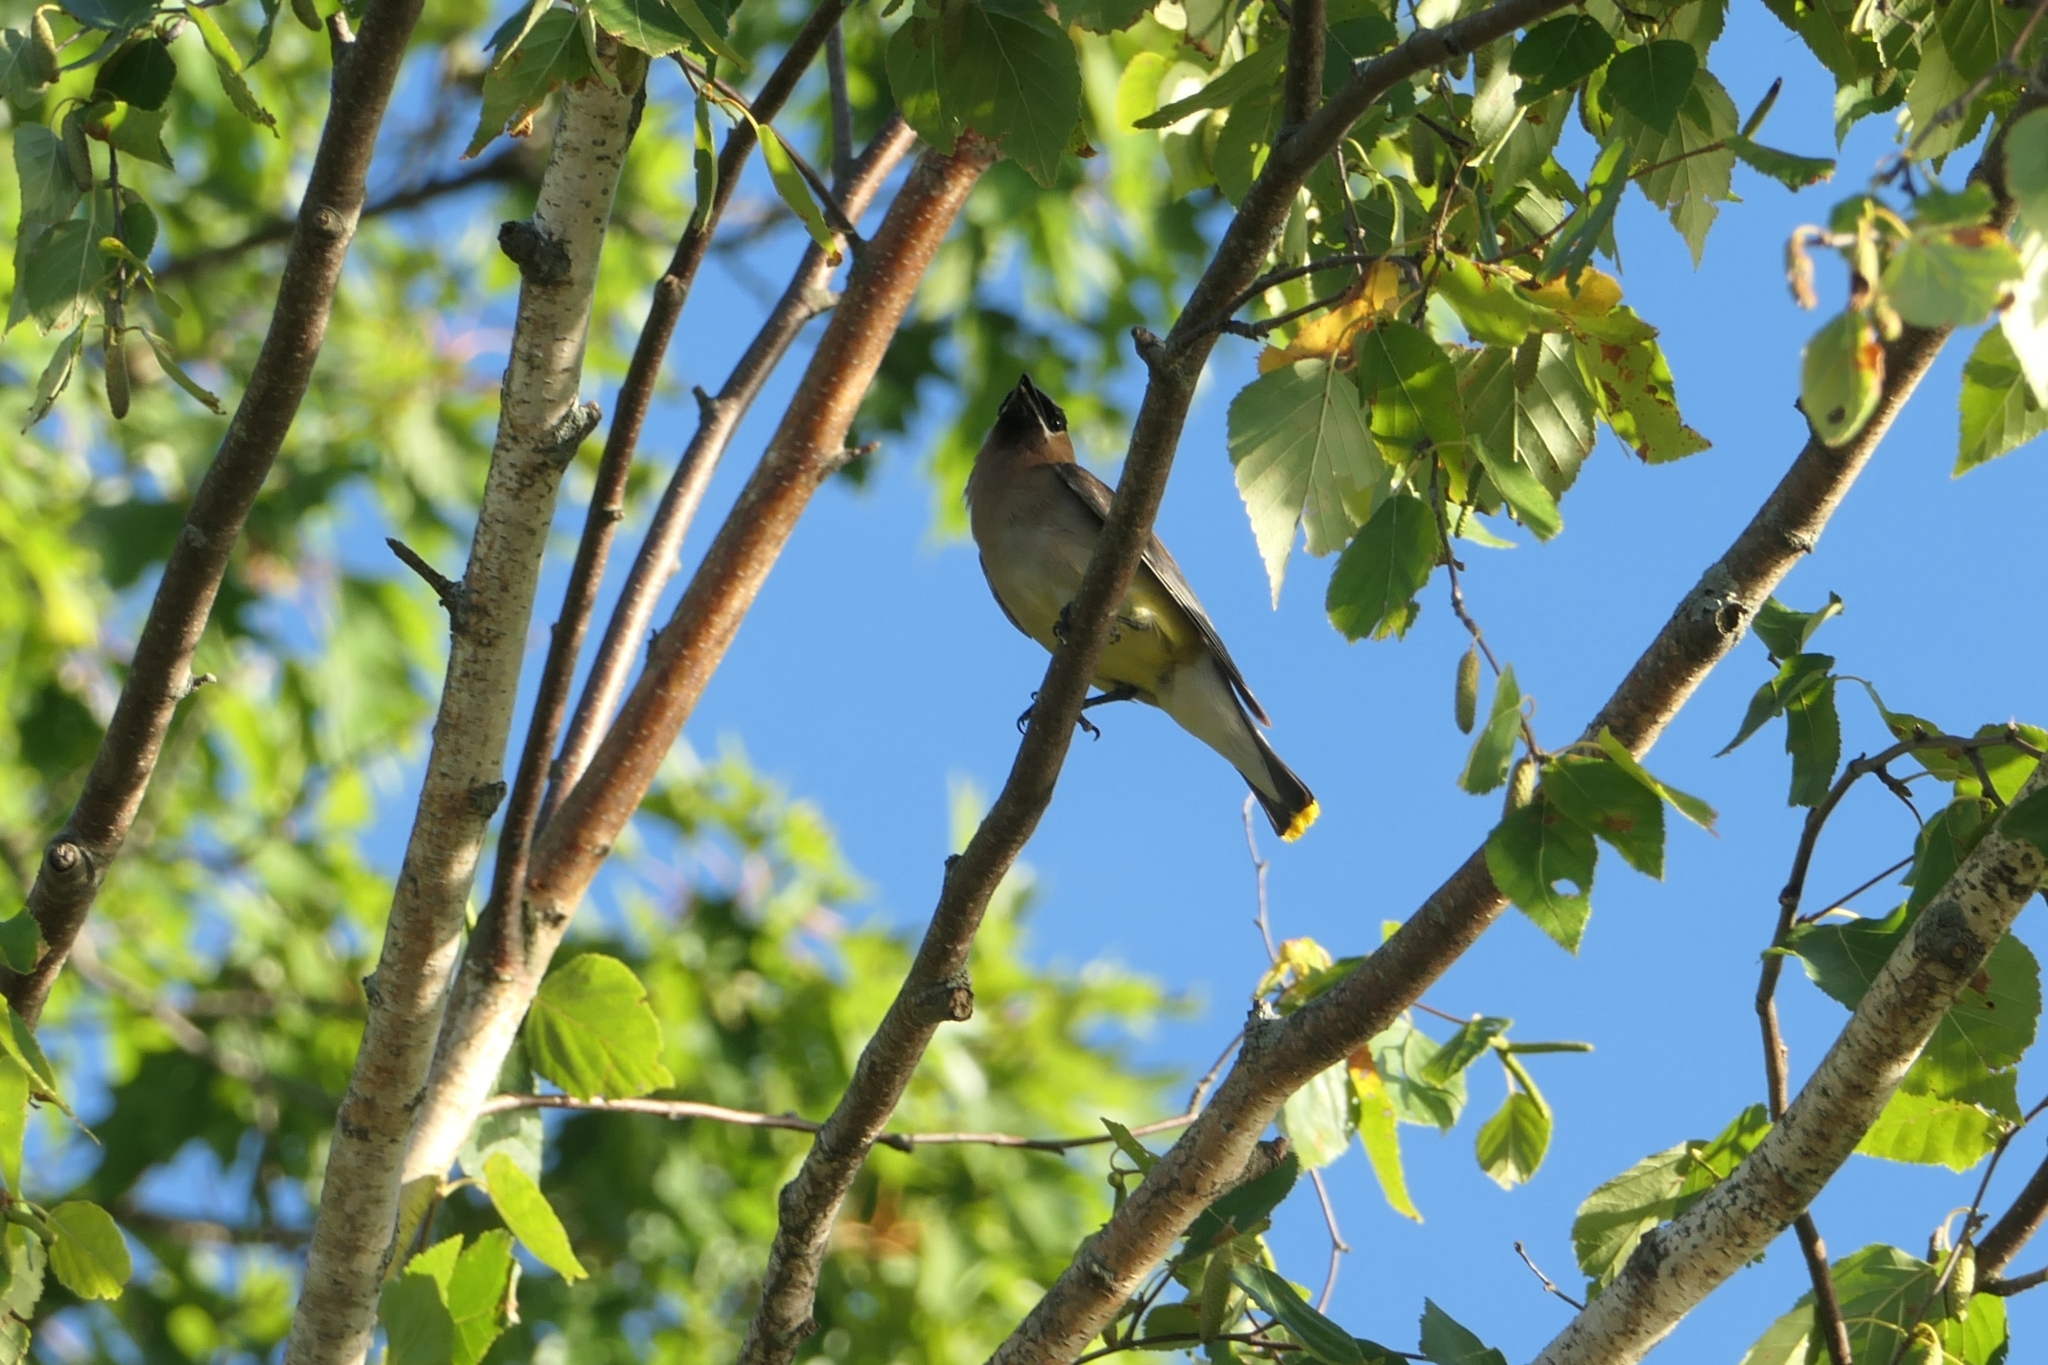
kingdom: Animalia
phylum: Chordata
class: Aves
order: Passeriformes
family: Bombycillidae
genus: Bombycilla
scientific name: Bombycilla cedrorum
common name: Cedar waxwing
